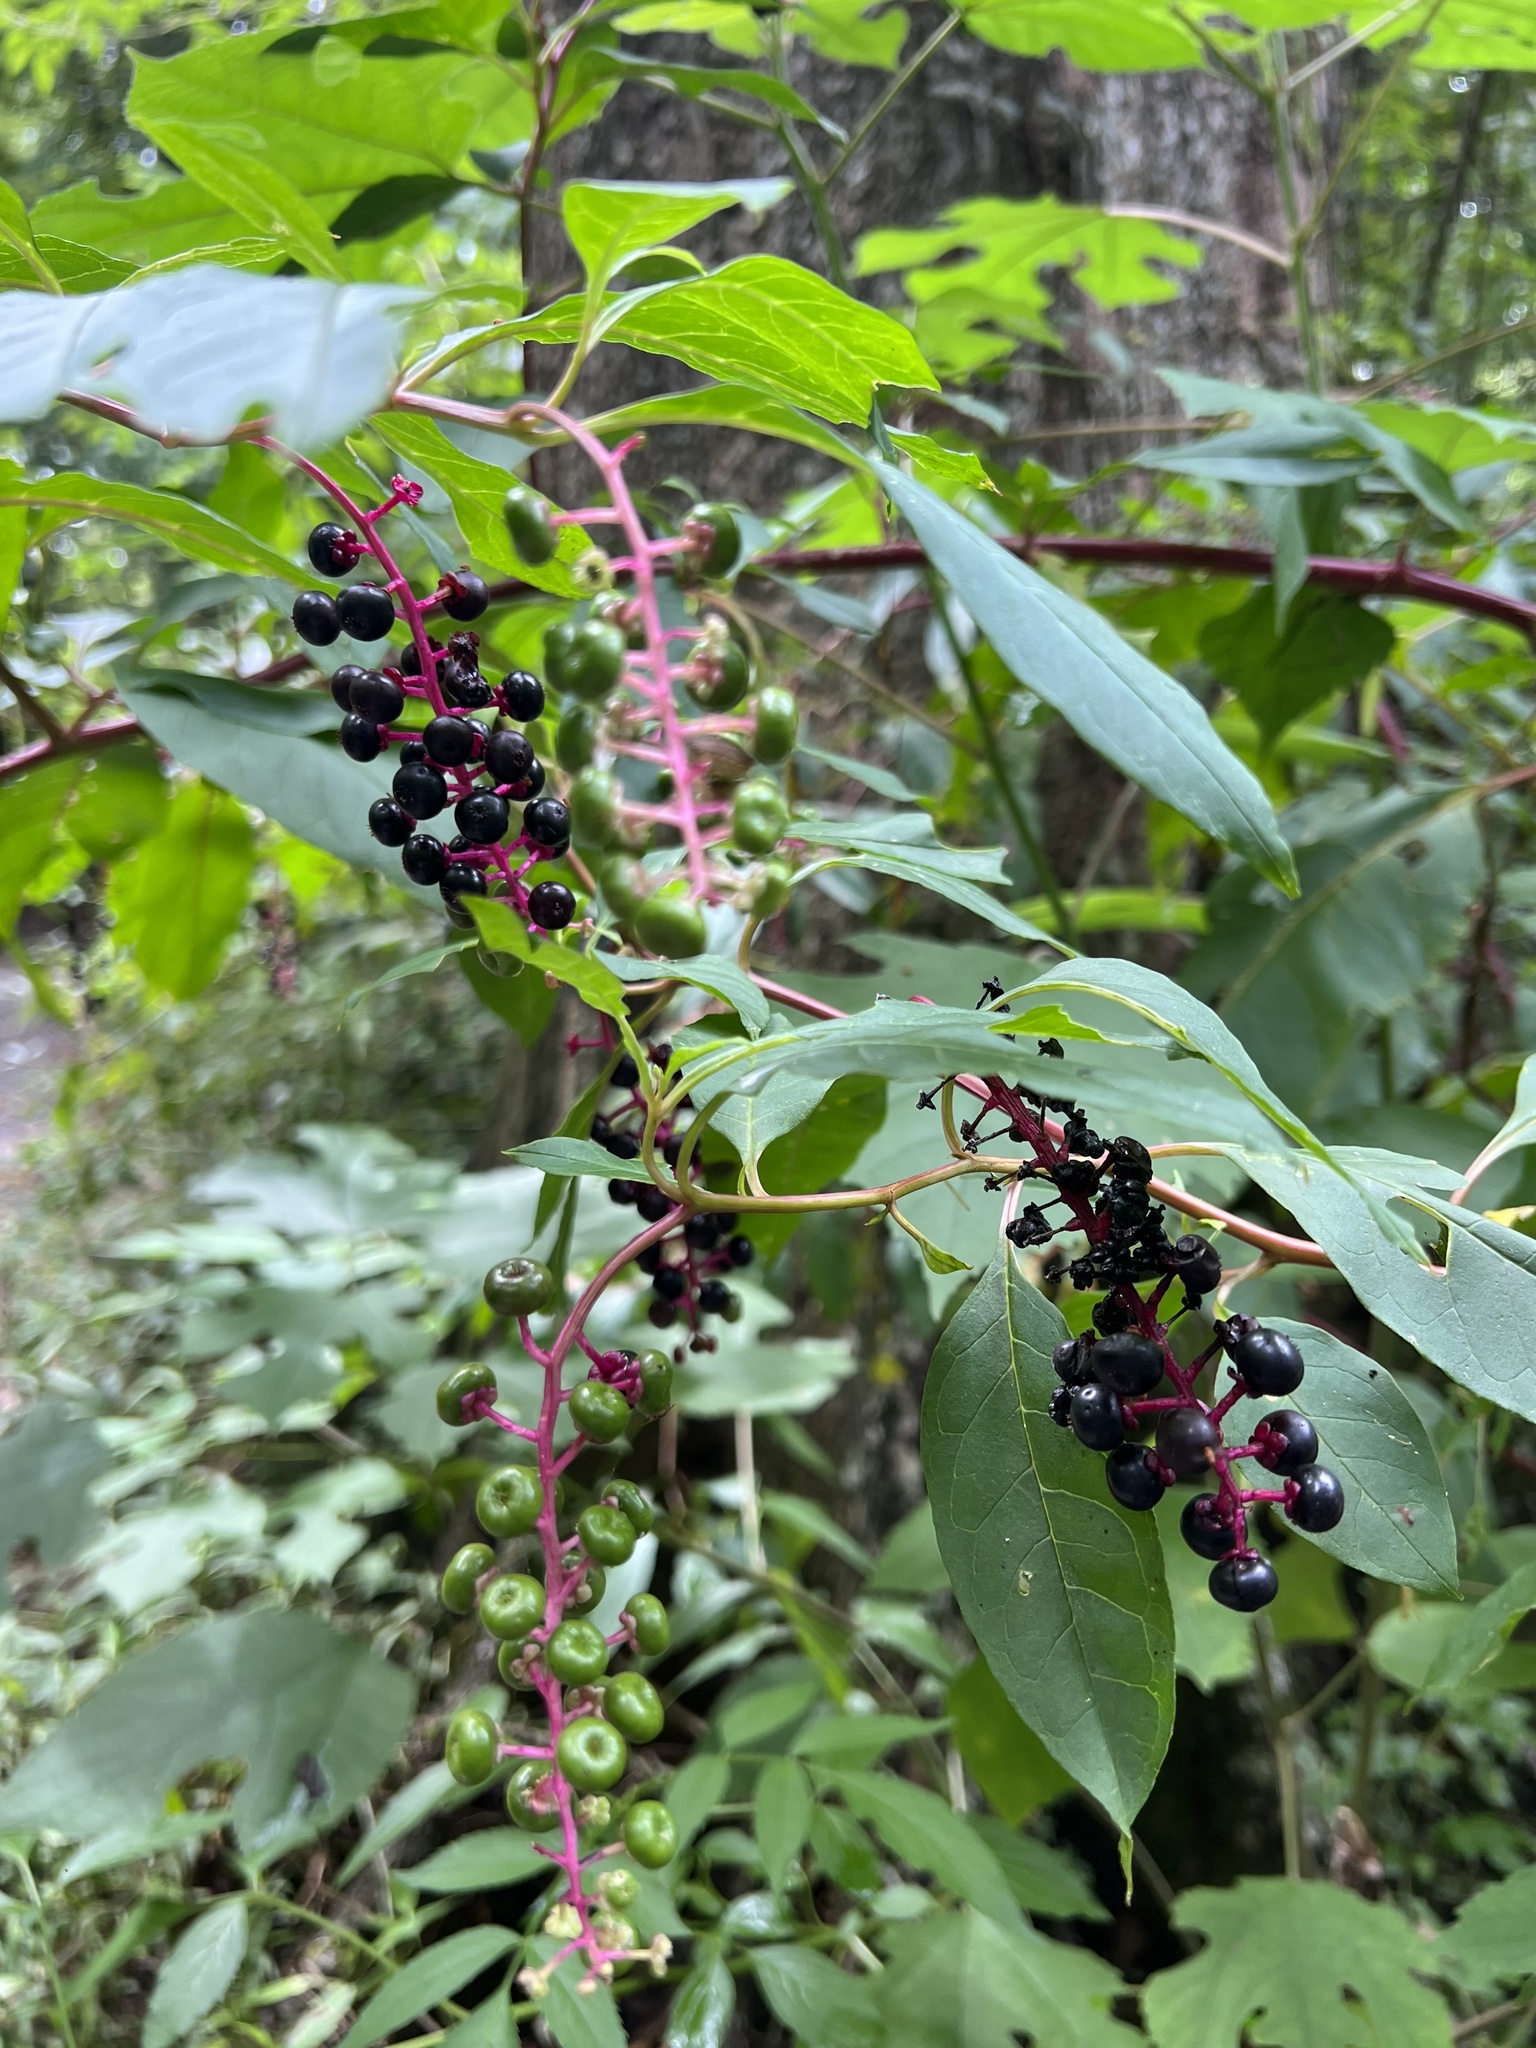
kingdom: Plantae
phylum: Tracheophyta
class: Magnoliopsida
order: Caryophyllales
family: Phytolaccaceae
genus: Phytolacca
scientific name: Phytolacca americana
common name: American pokeweed
